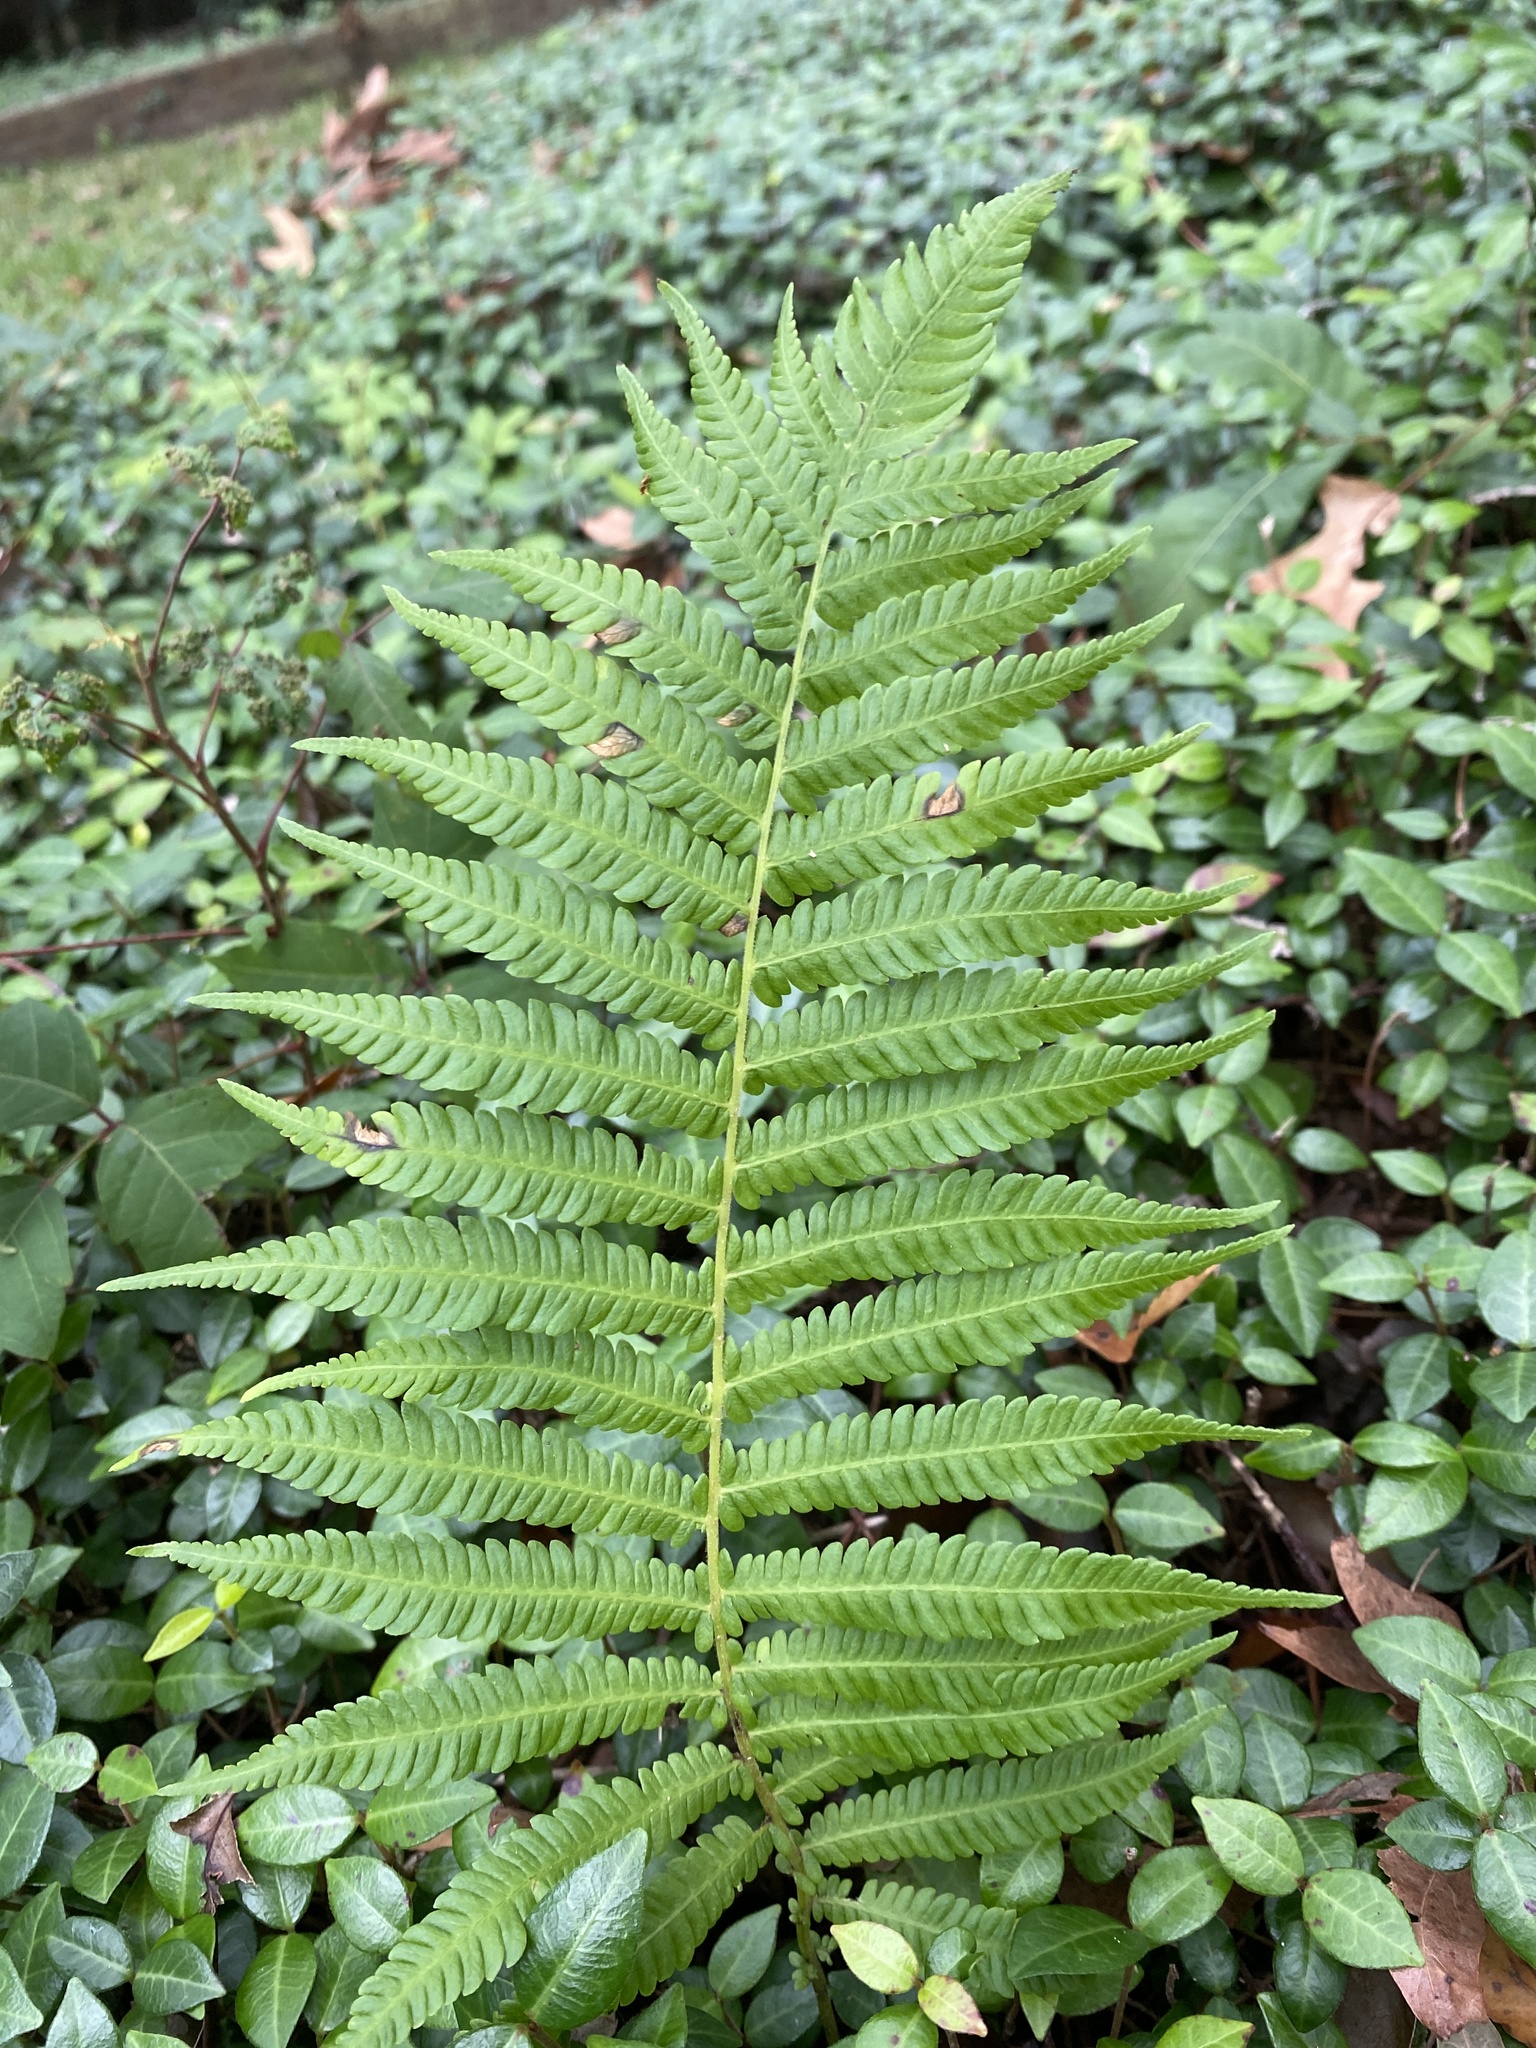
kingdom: Plantae
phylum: Tracheophyta
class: Polypodiopsida
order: Polypodiales
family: Thelypteridaceae
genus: Pelazoneuron
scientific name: Pelazoneuron ovatum
